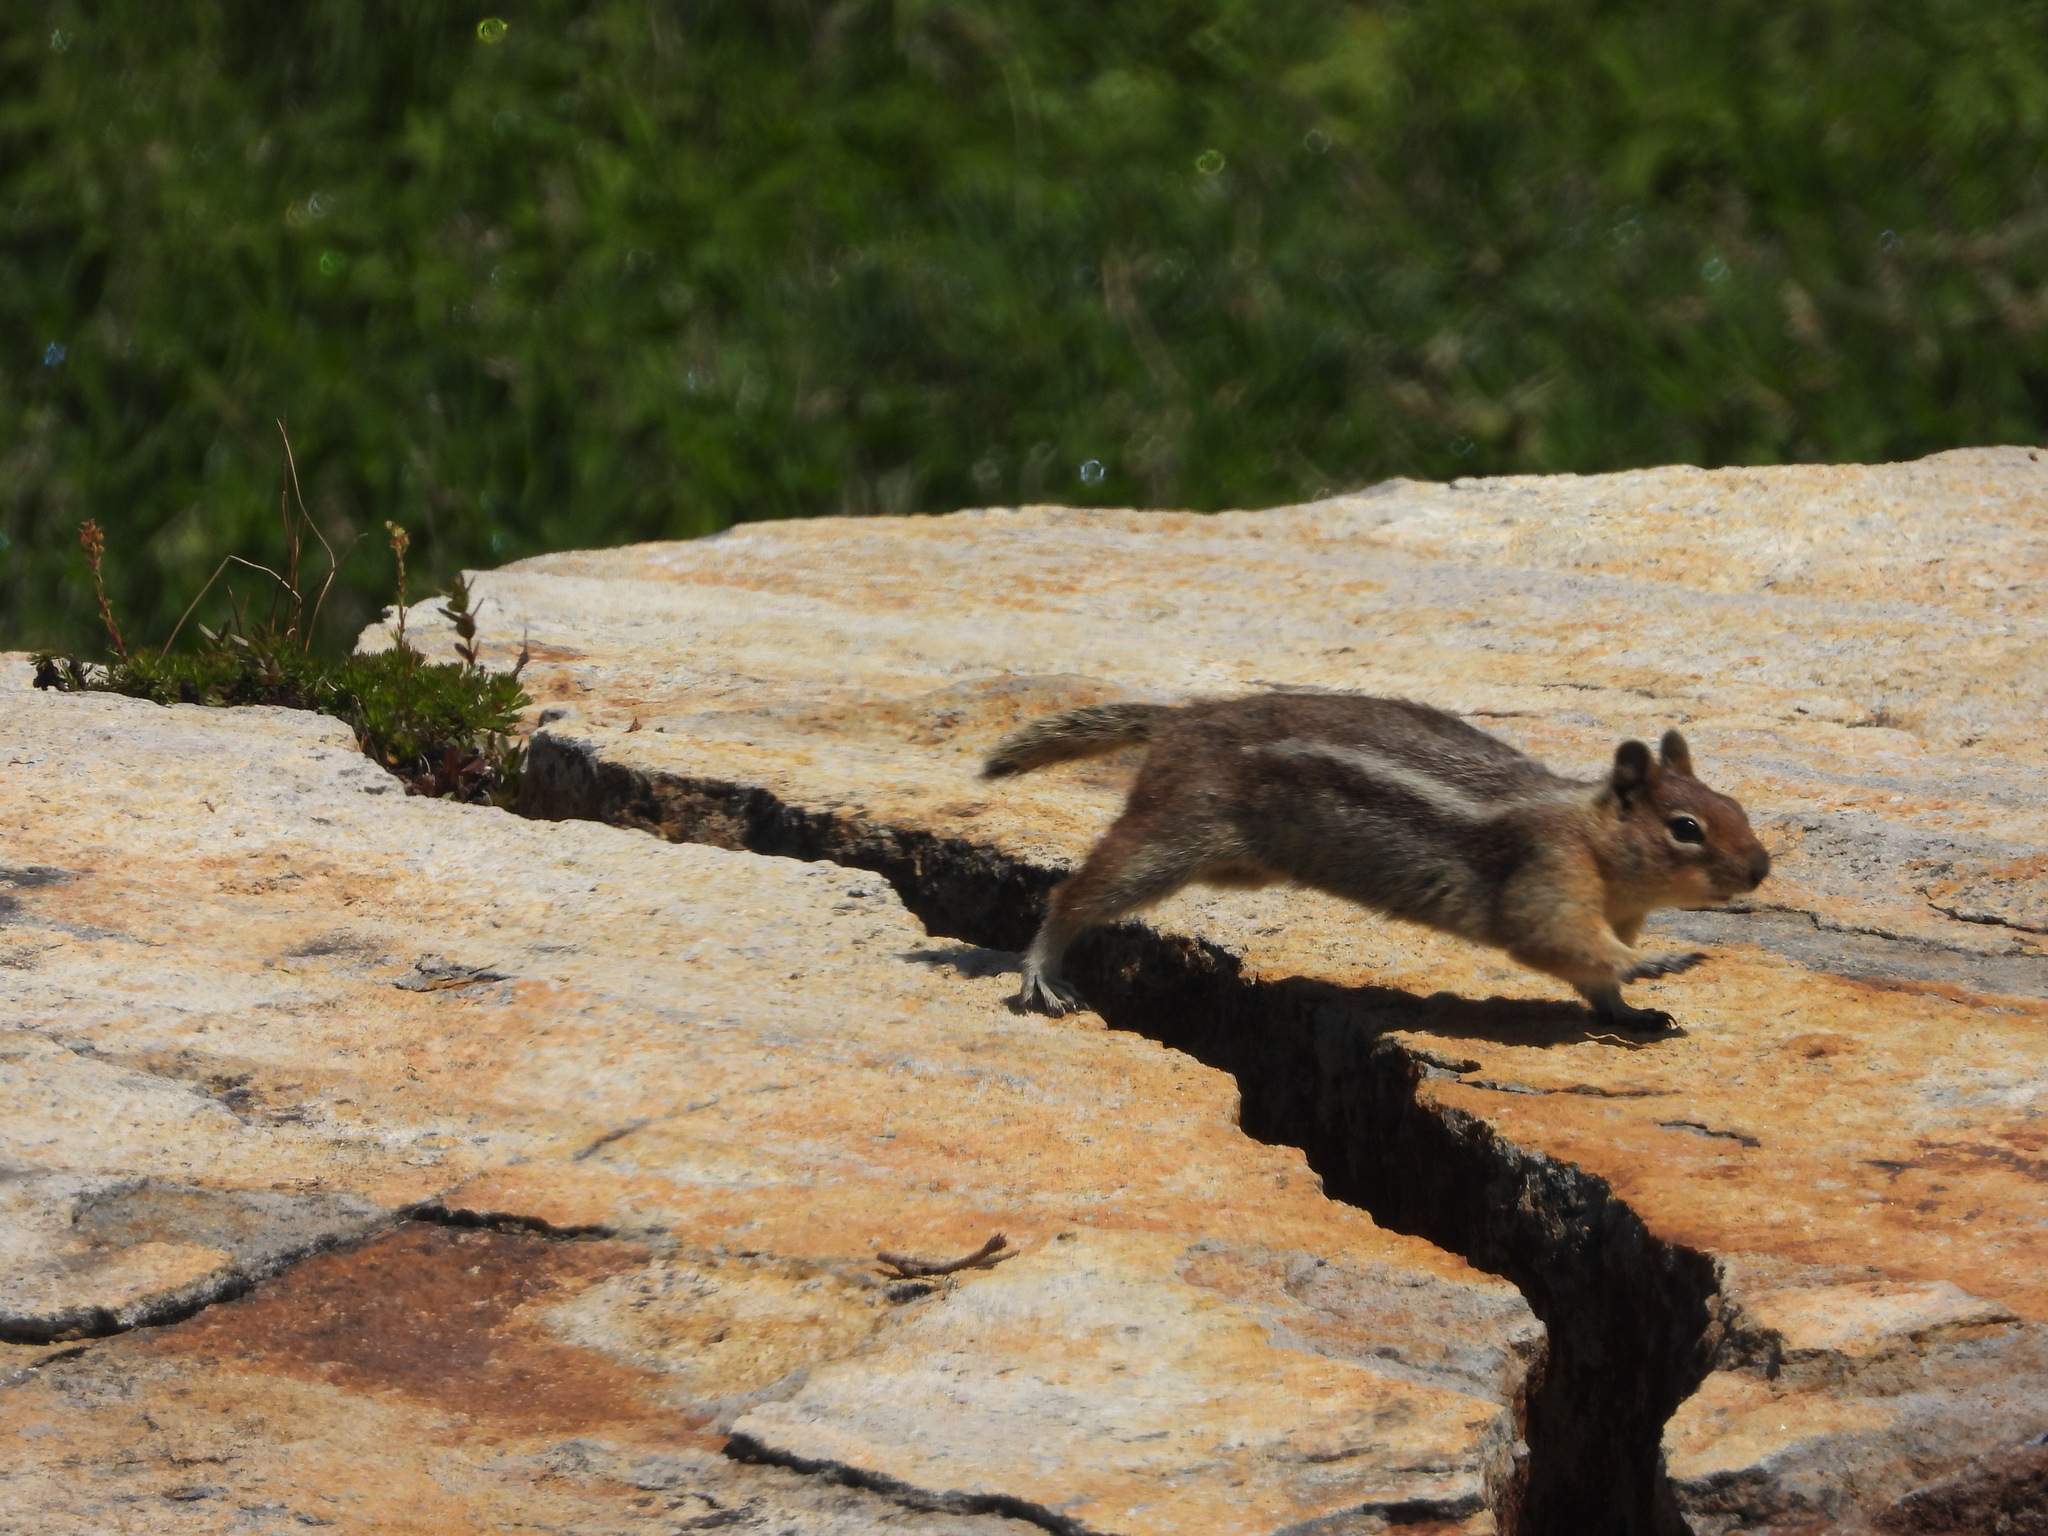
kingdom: Animalia
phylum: Chordata
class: Mammalia
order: Rodentia
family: Sciuridae
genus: Callospermophilus
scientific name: Callospermophilus saturatus
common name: Cascade golden-mantled ground squirrel
